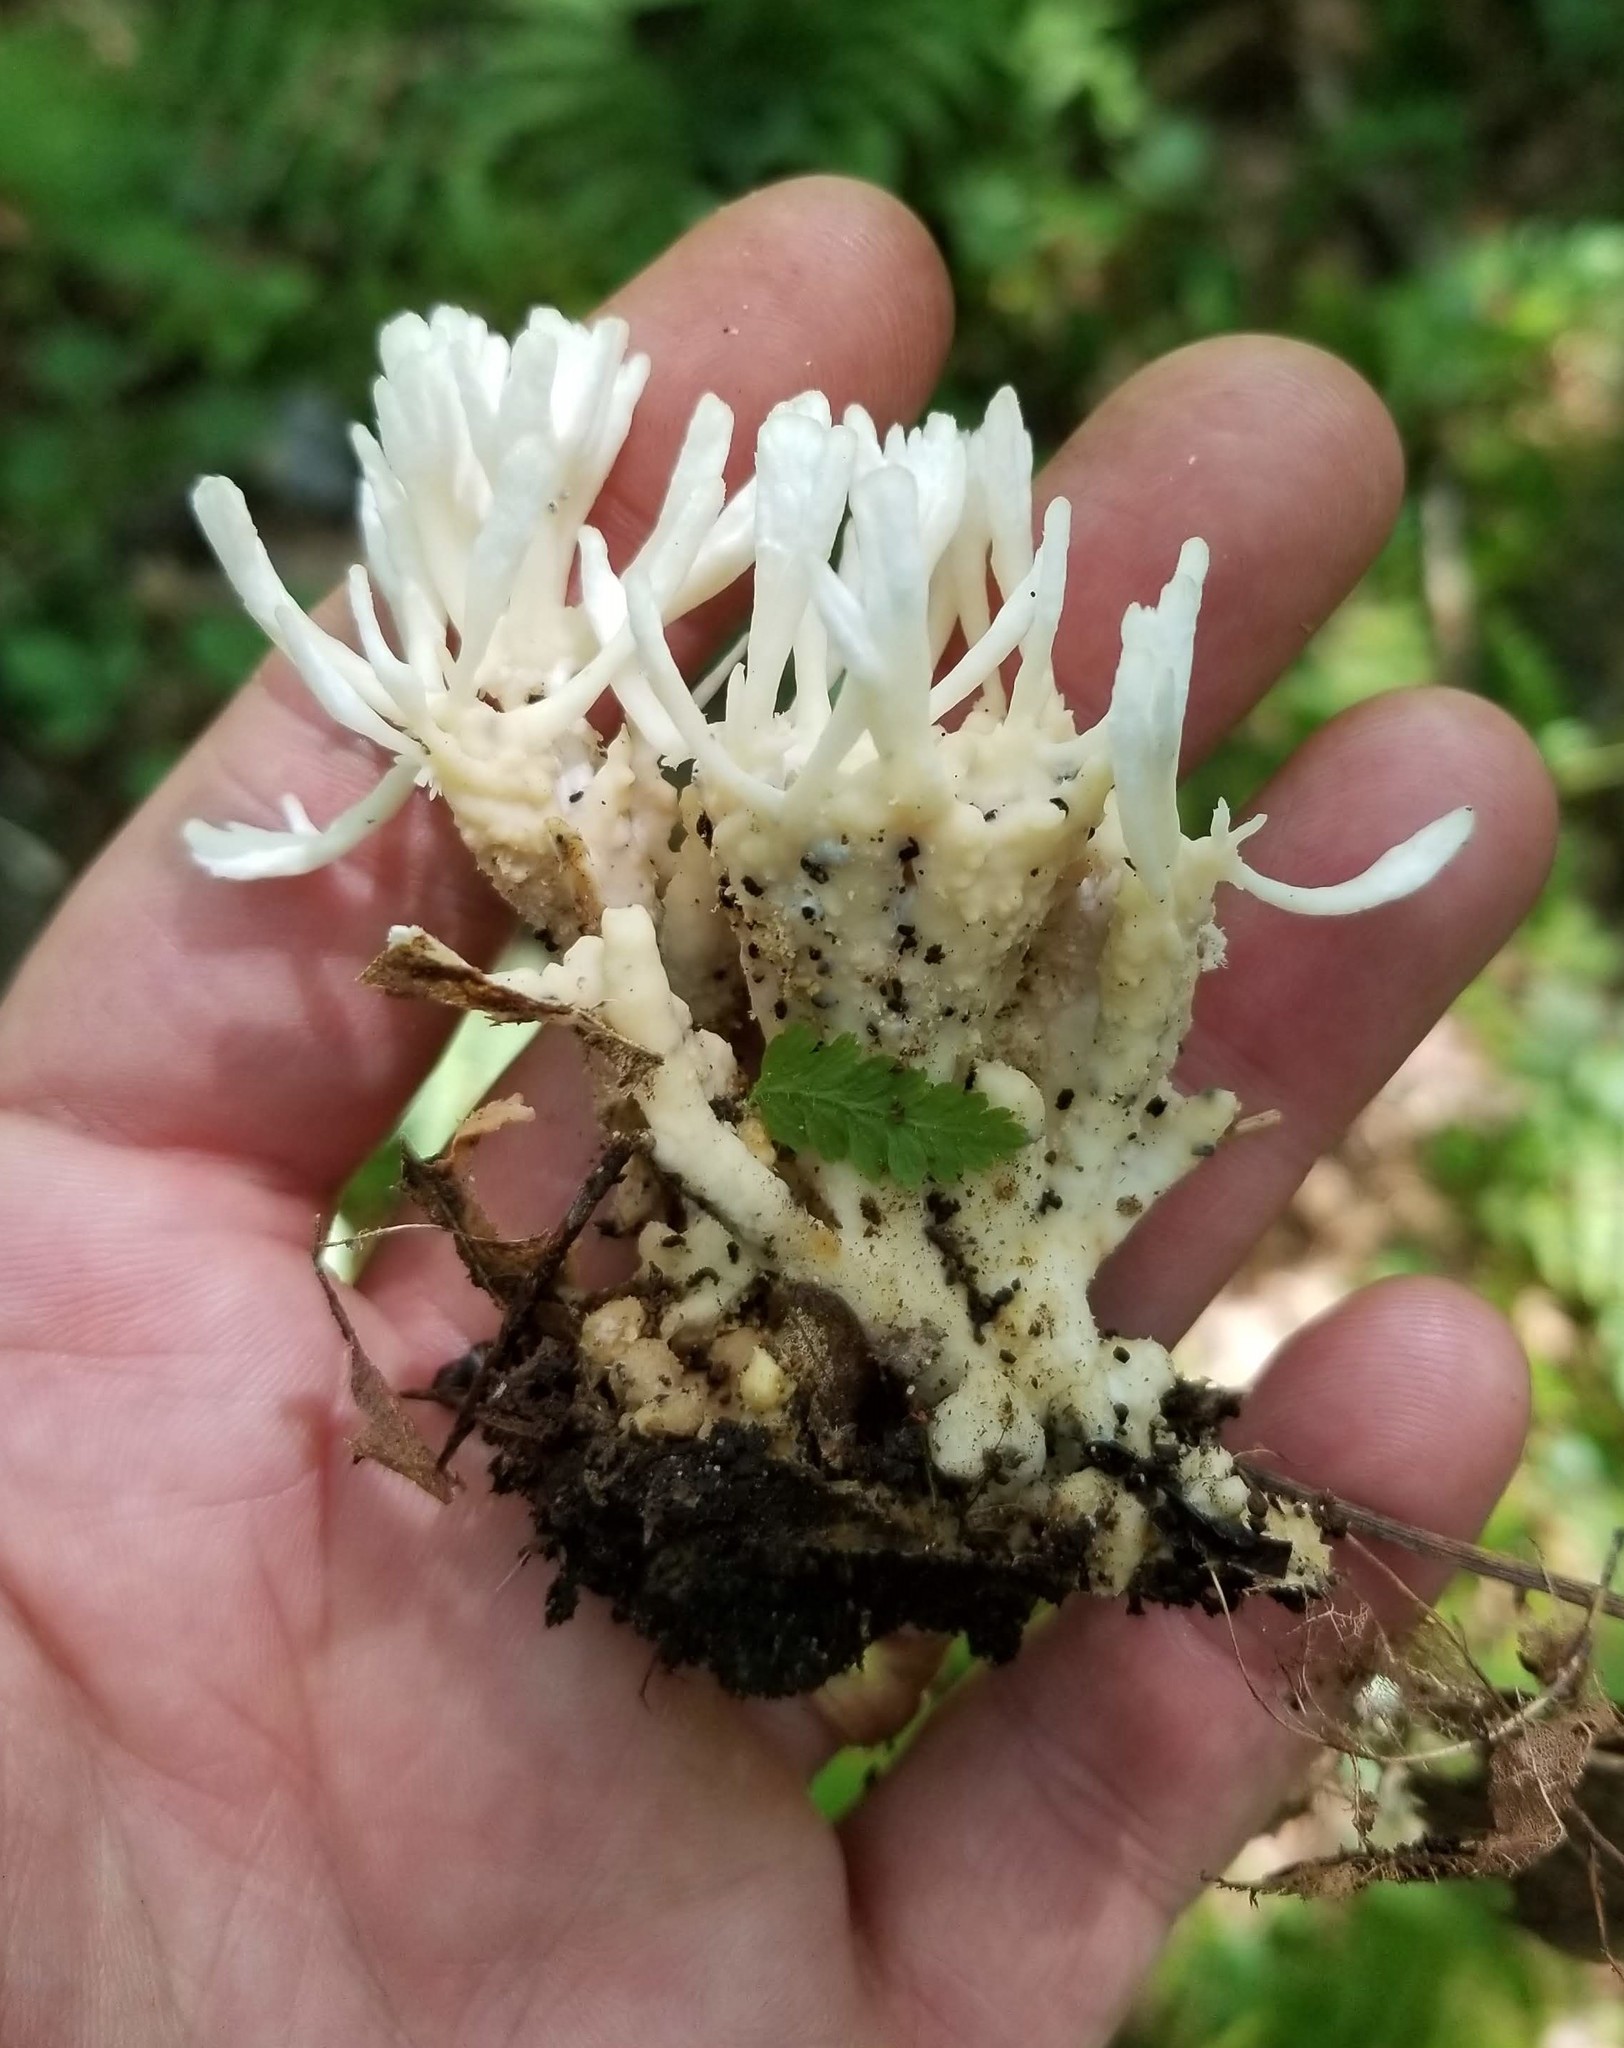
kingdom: Fungi
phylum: Basidiomycota
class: Agaricomycetes
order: Sebacinales
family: Sebacinaceae
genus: Sebacina
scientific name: Sebacina schweinitzii
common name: Jellied false coral fungus
